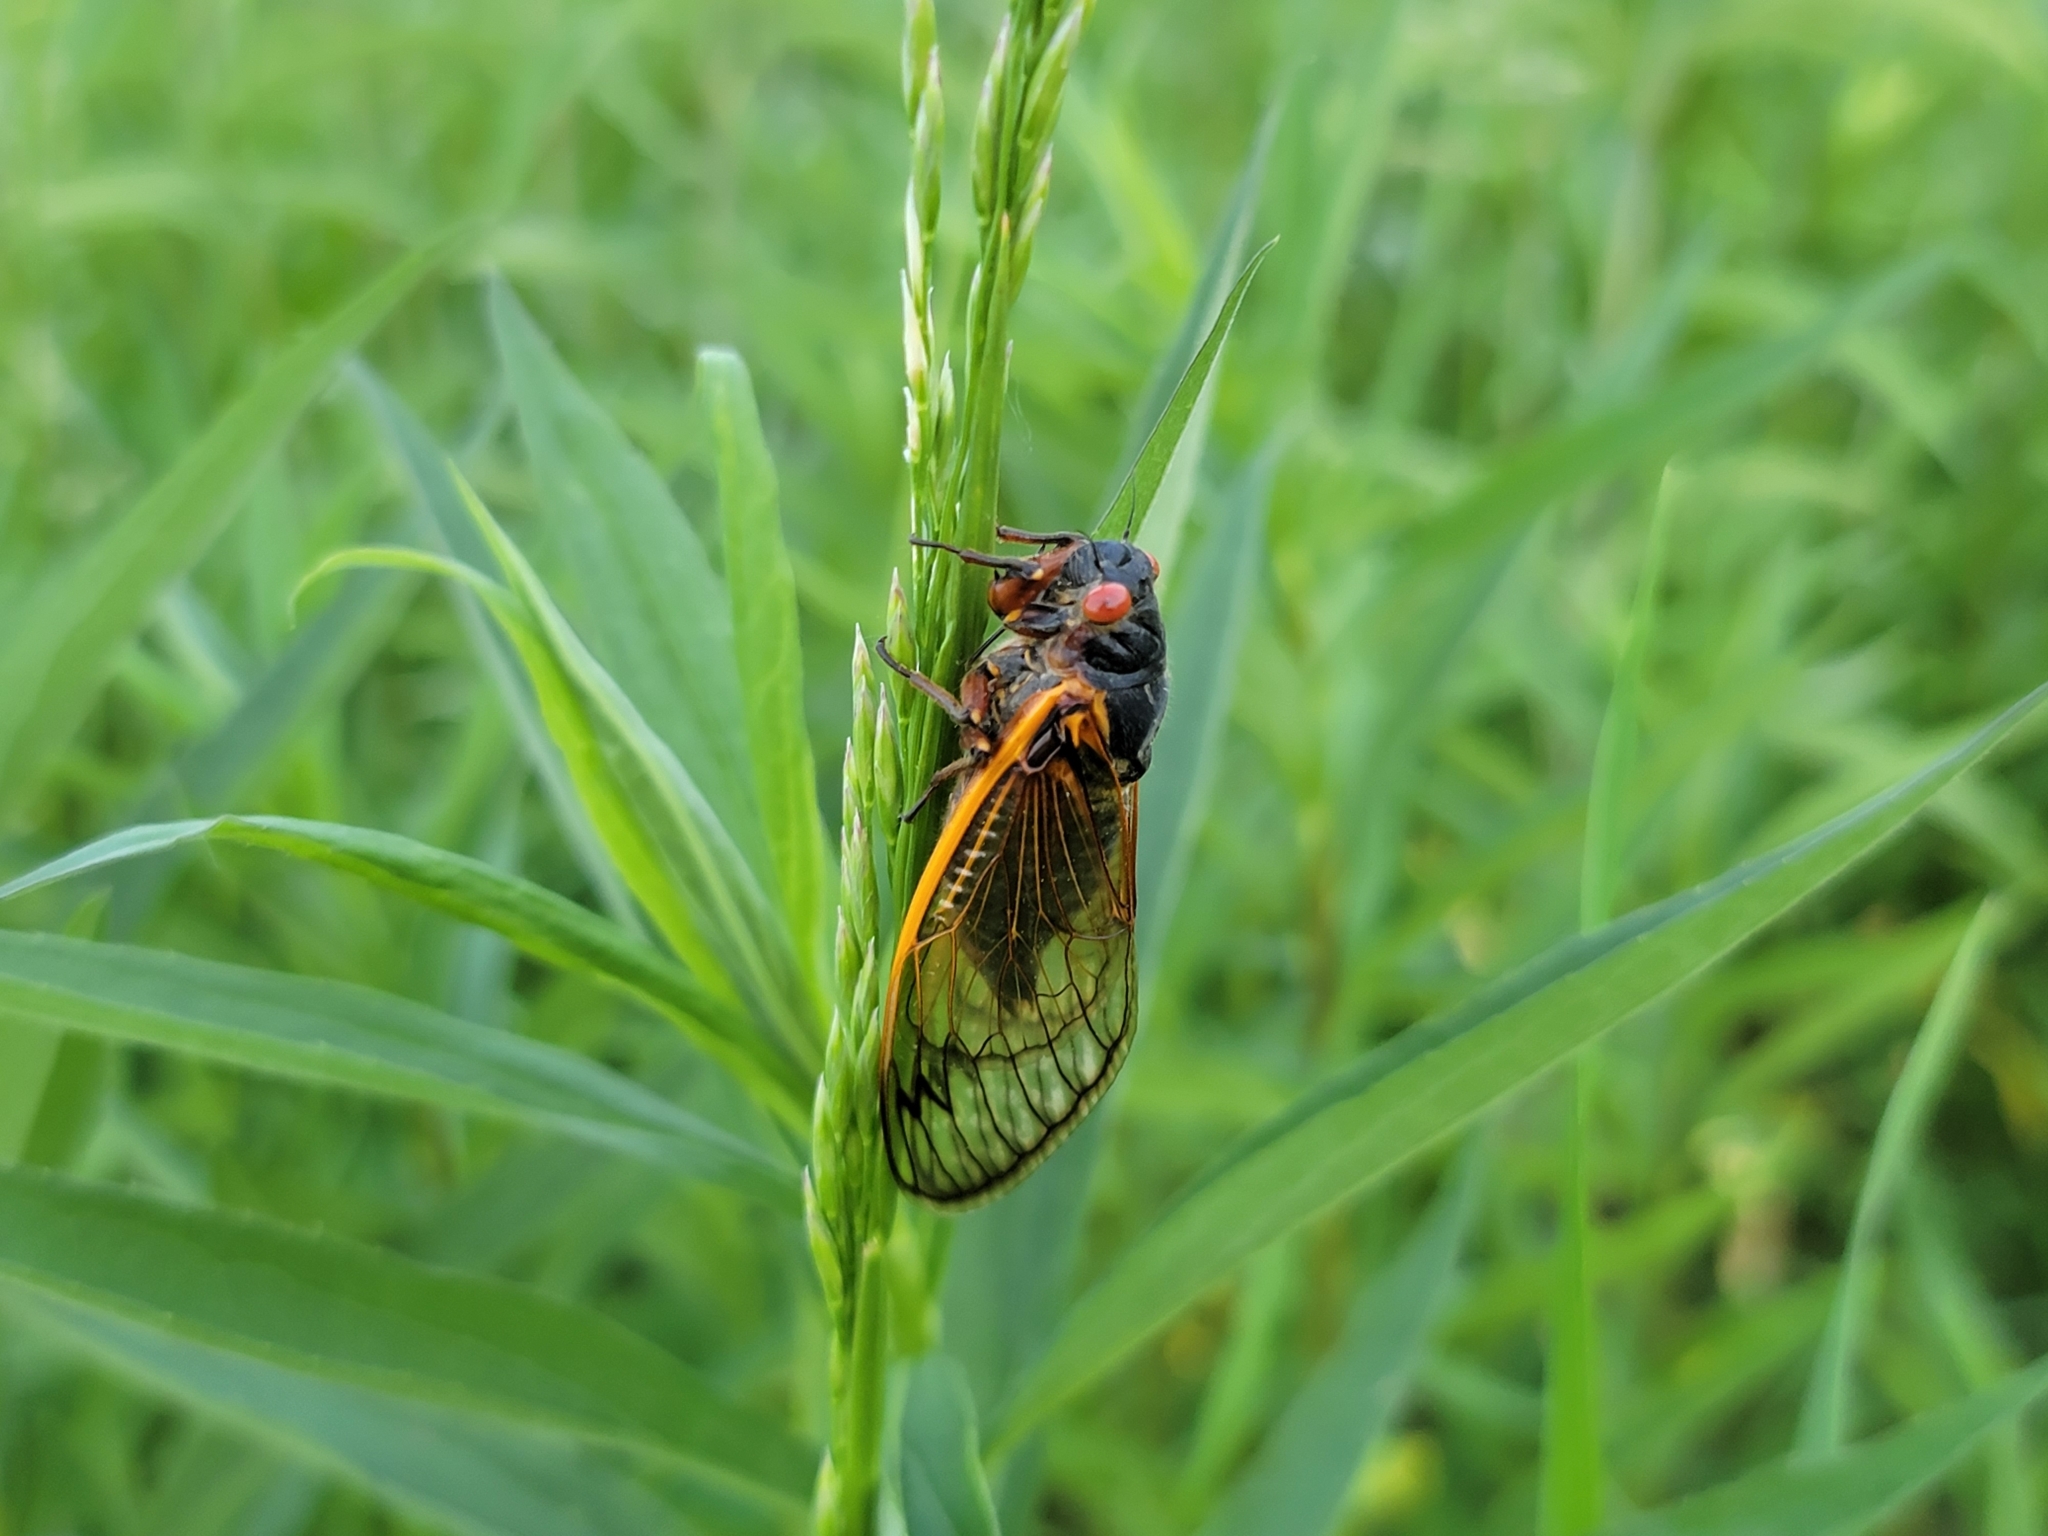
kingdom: Animalia
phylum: Arthropoda
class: Insecta
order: Hemiptera
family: Cicadidae
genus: Magicicada
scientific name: Magicicada septendecim
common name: Periodical cicada
